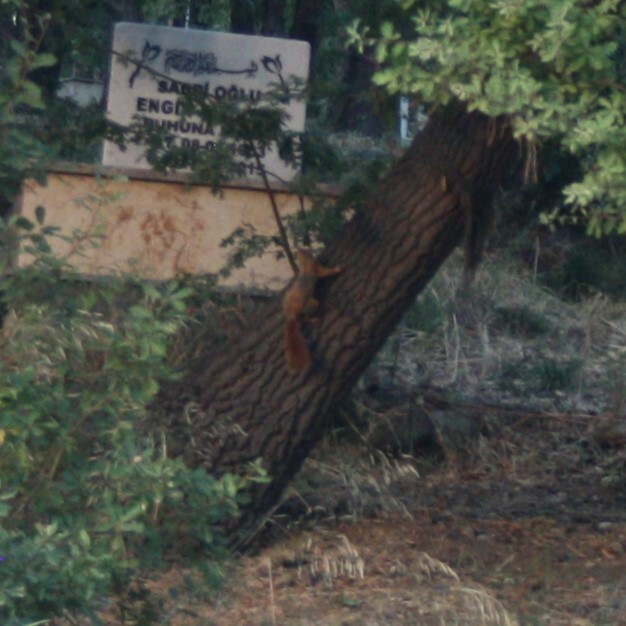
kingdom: Animalia
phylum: Chordata
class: Mammalia
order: Rodentia
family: Sciuridae
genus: Sciurus
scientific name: Sciurus anomalus
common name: Caucasian squirrel
